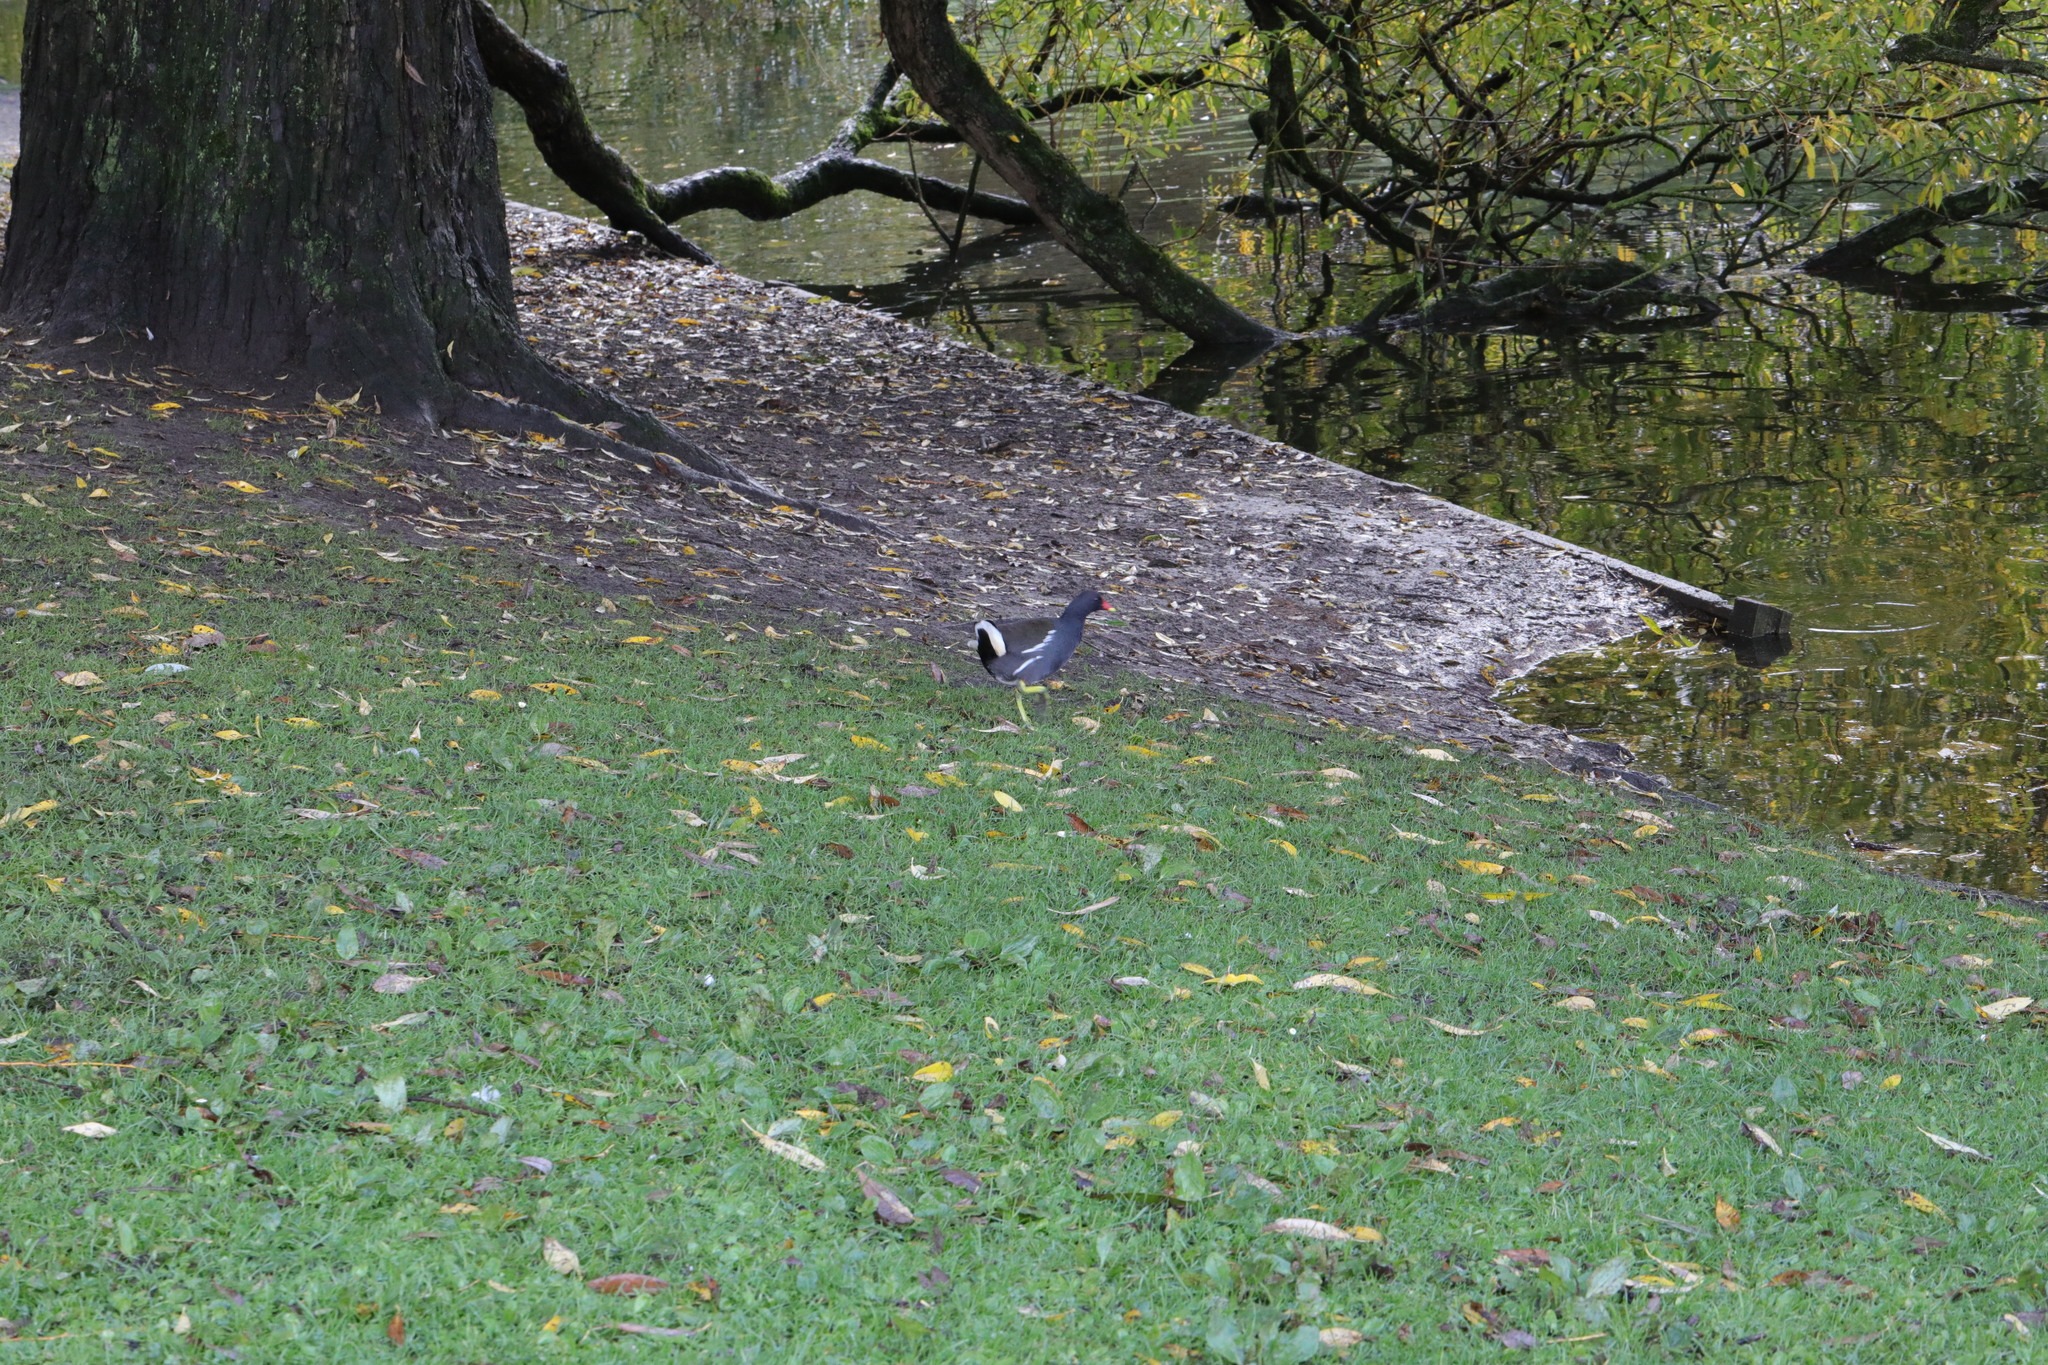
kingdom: Animalia
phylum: Chordata
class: Aves
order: Gruiformes
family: Rallidae
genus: Gallinula
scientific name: Gallinula chloropus
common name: Common moorhen
